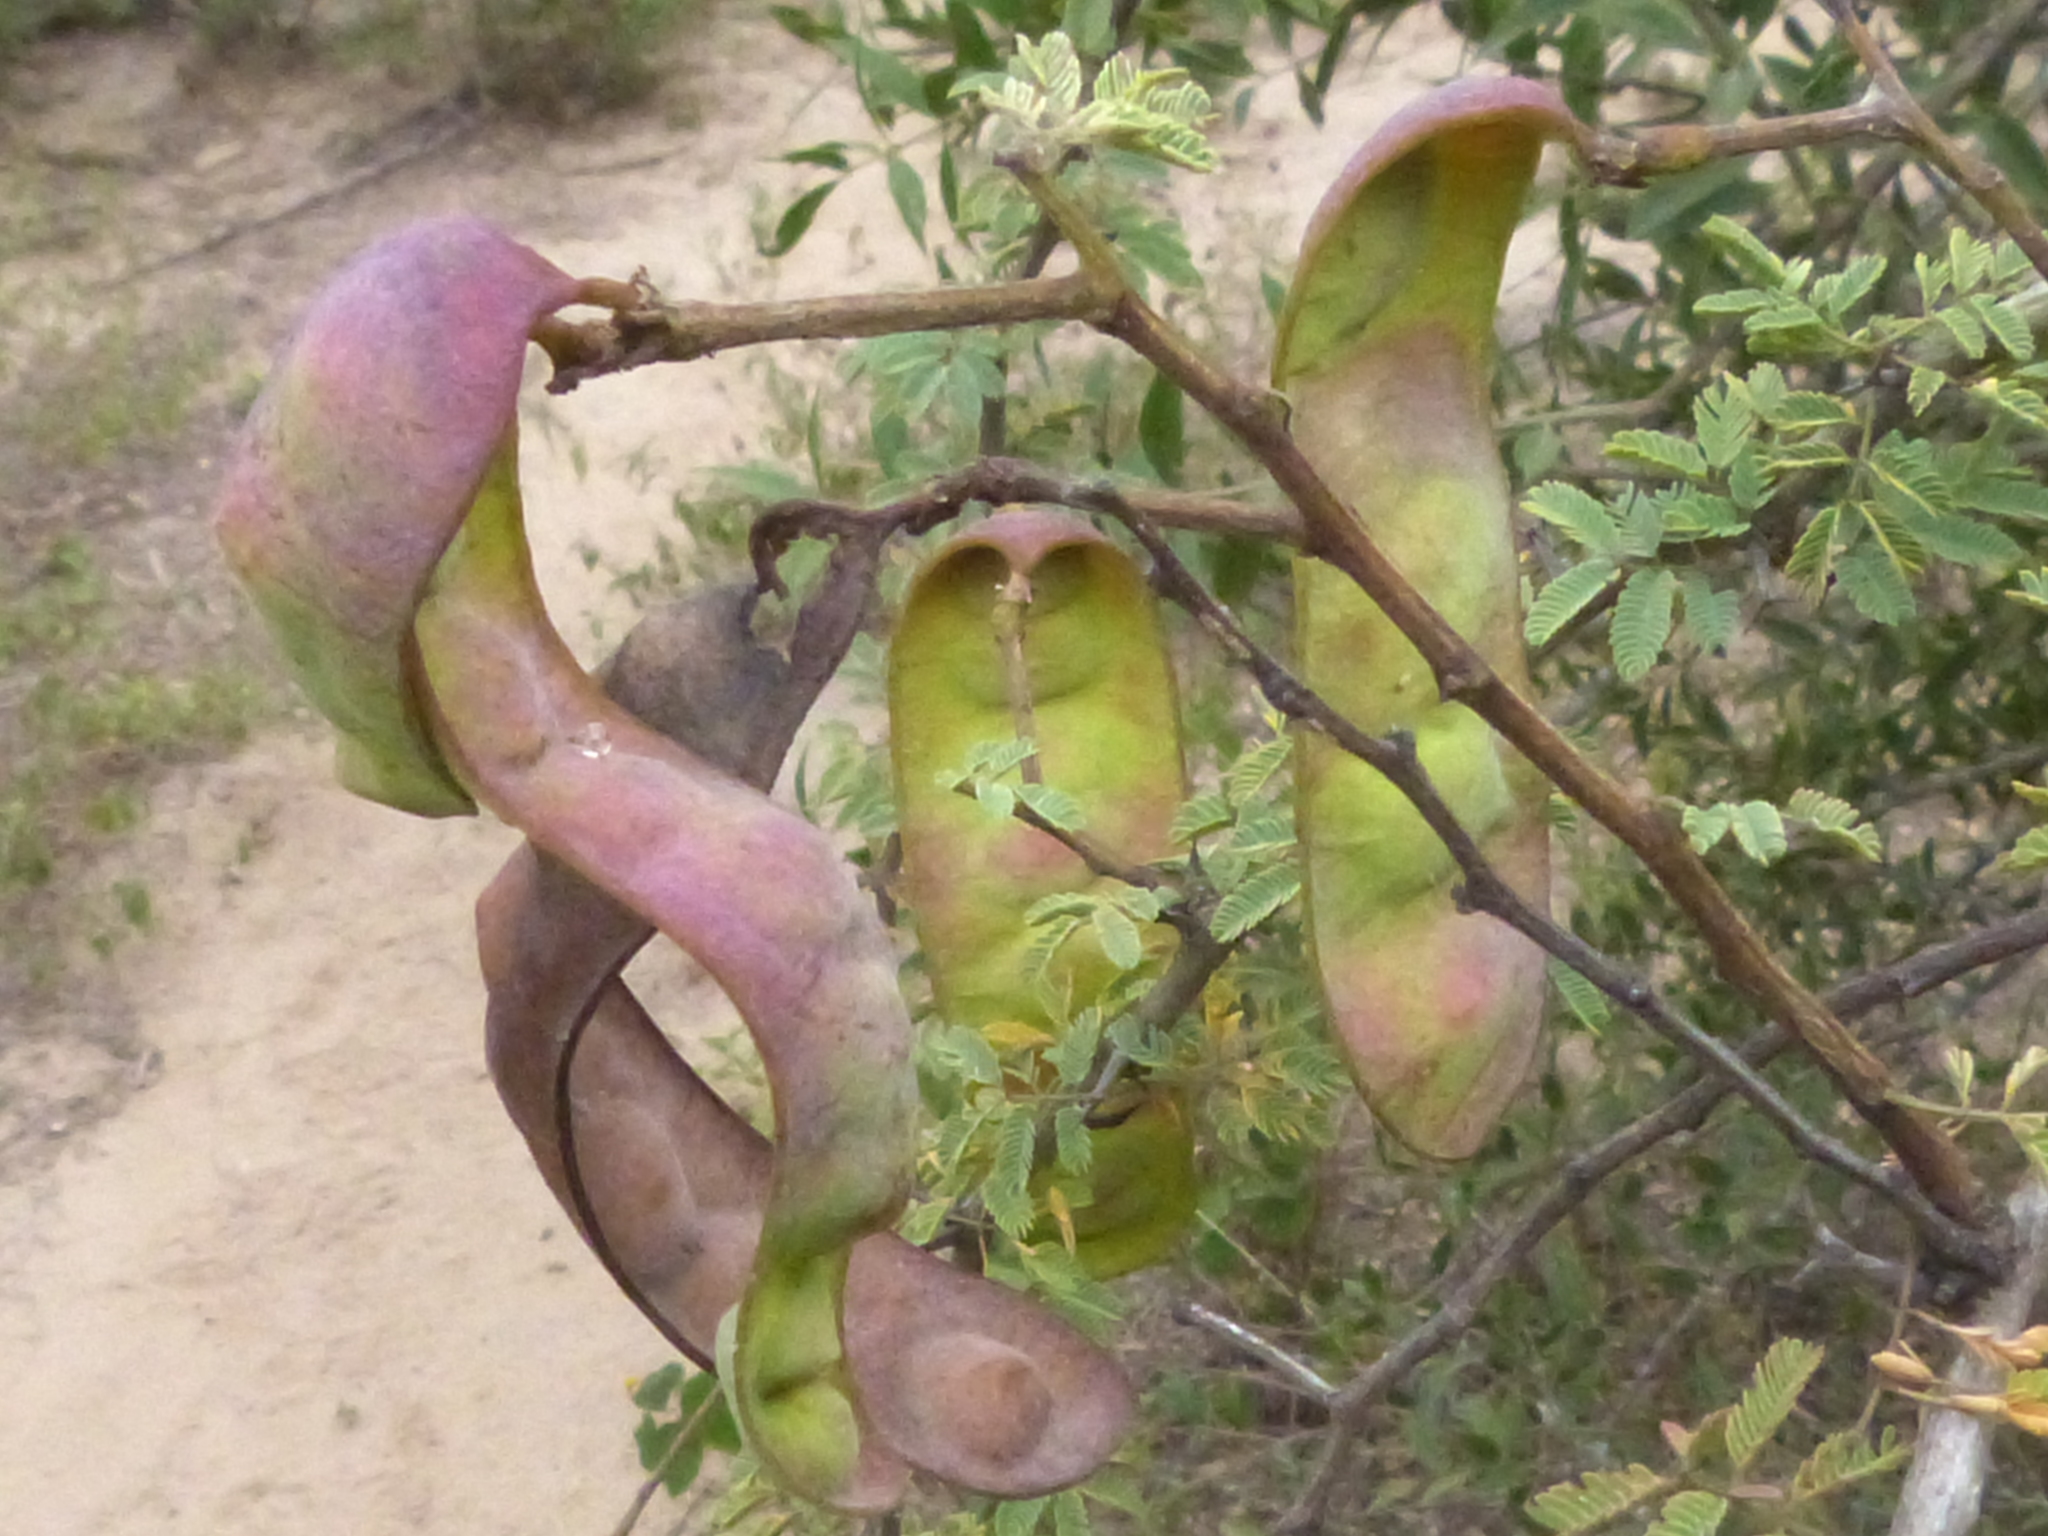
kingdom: Plantae
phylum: Tracheophyta
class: Magnoliopsida
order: Fabales
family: Fabaceae
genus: Senegalia
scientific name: Senegalia gilliesii
